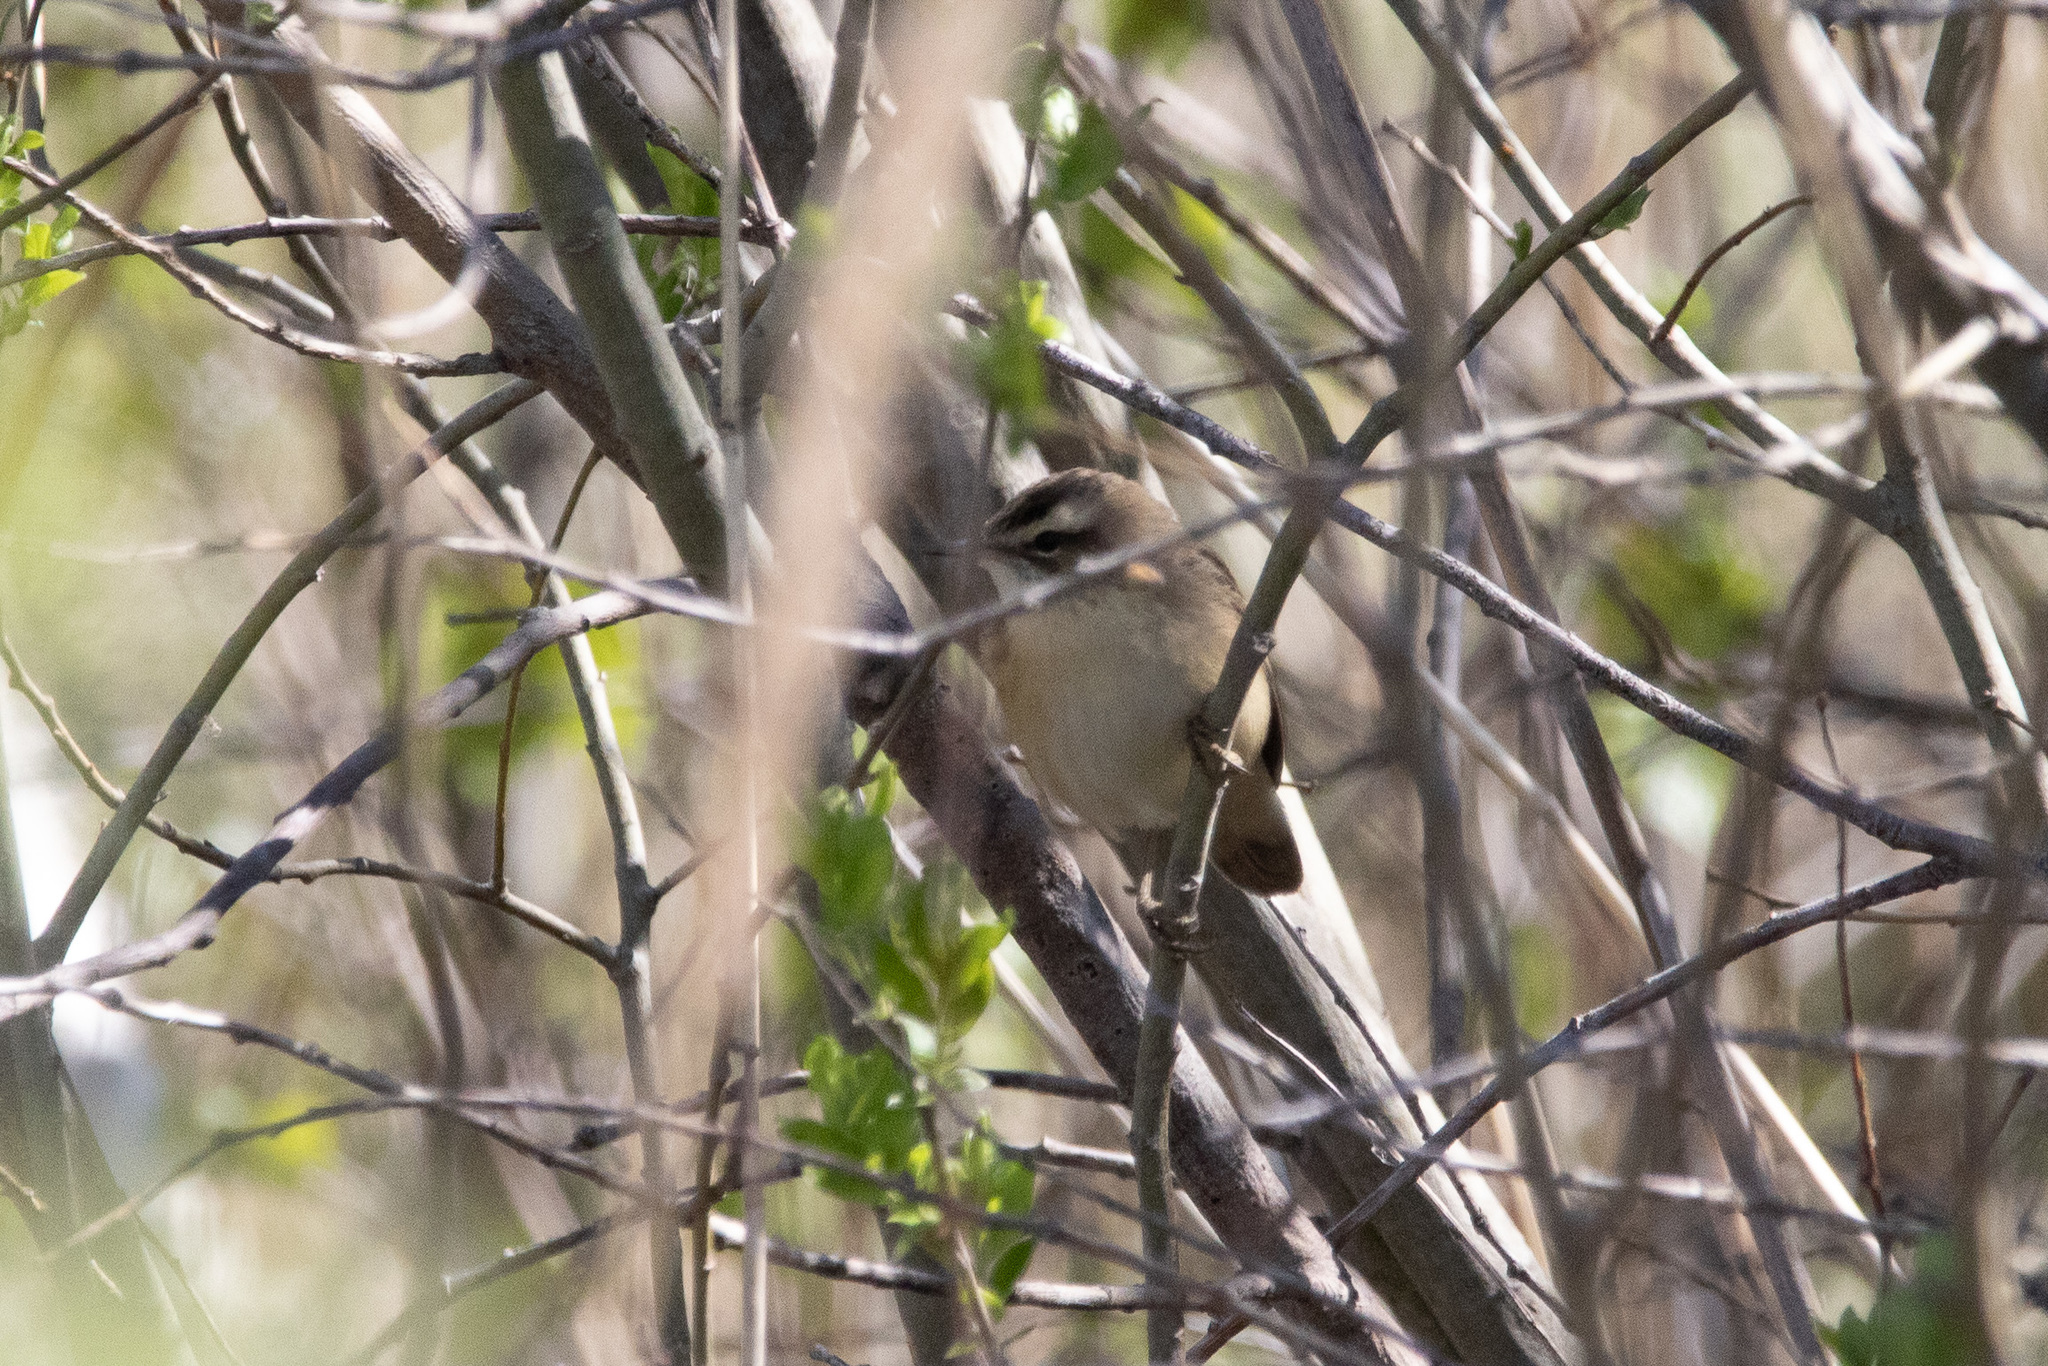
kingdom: Animalia
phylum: Chordata
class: Aves
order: Passeriformes
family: Acrocephalidae
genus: Acrocephalus
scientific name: Acrocephalus schoenobaenus
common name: Sedge warbler
